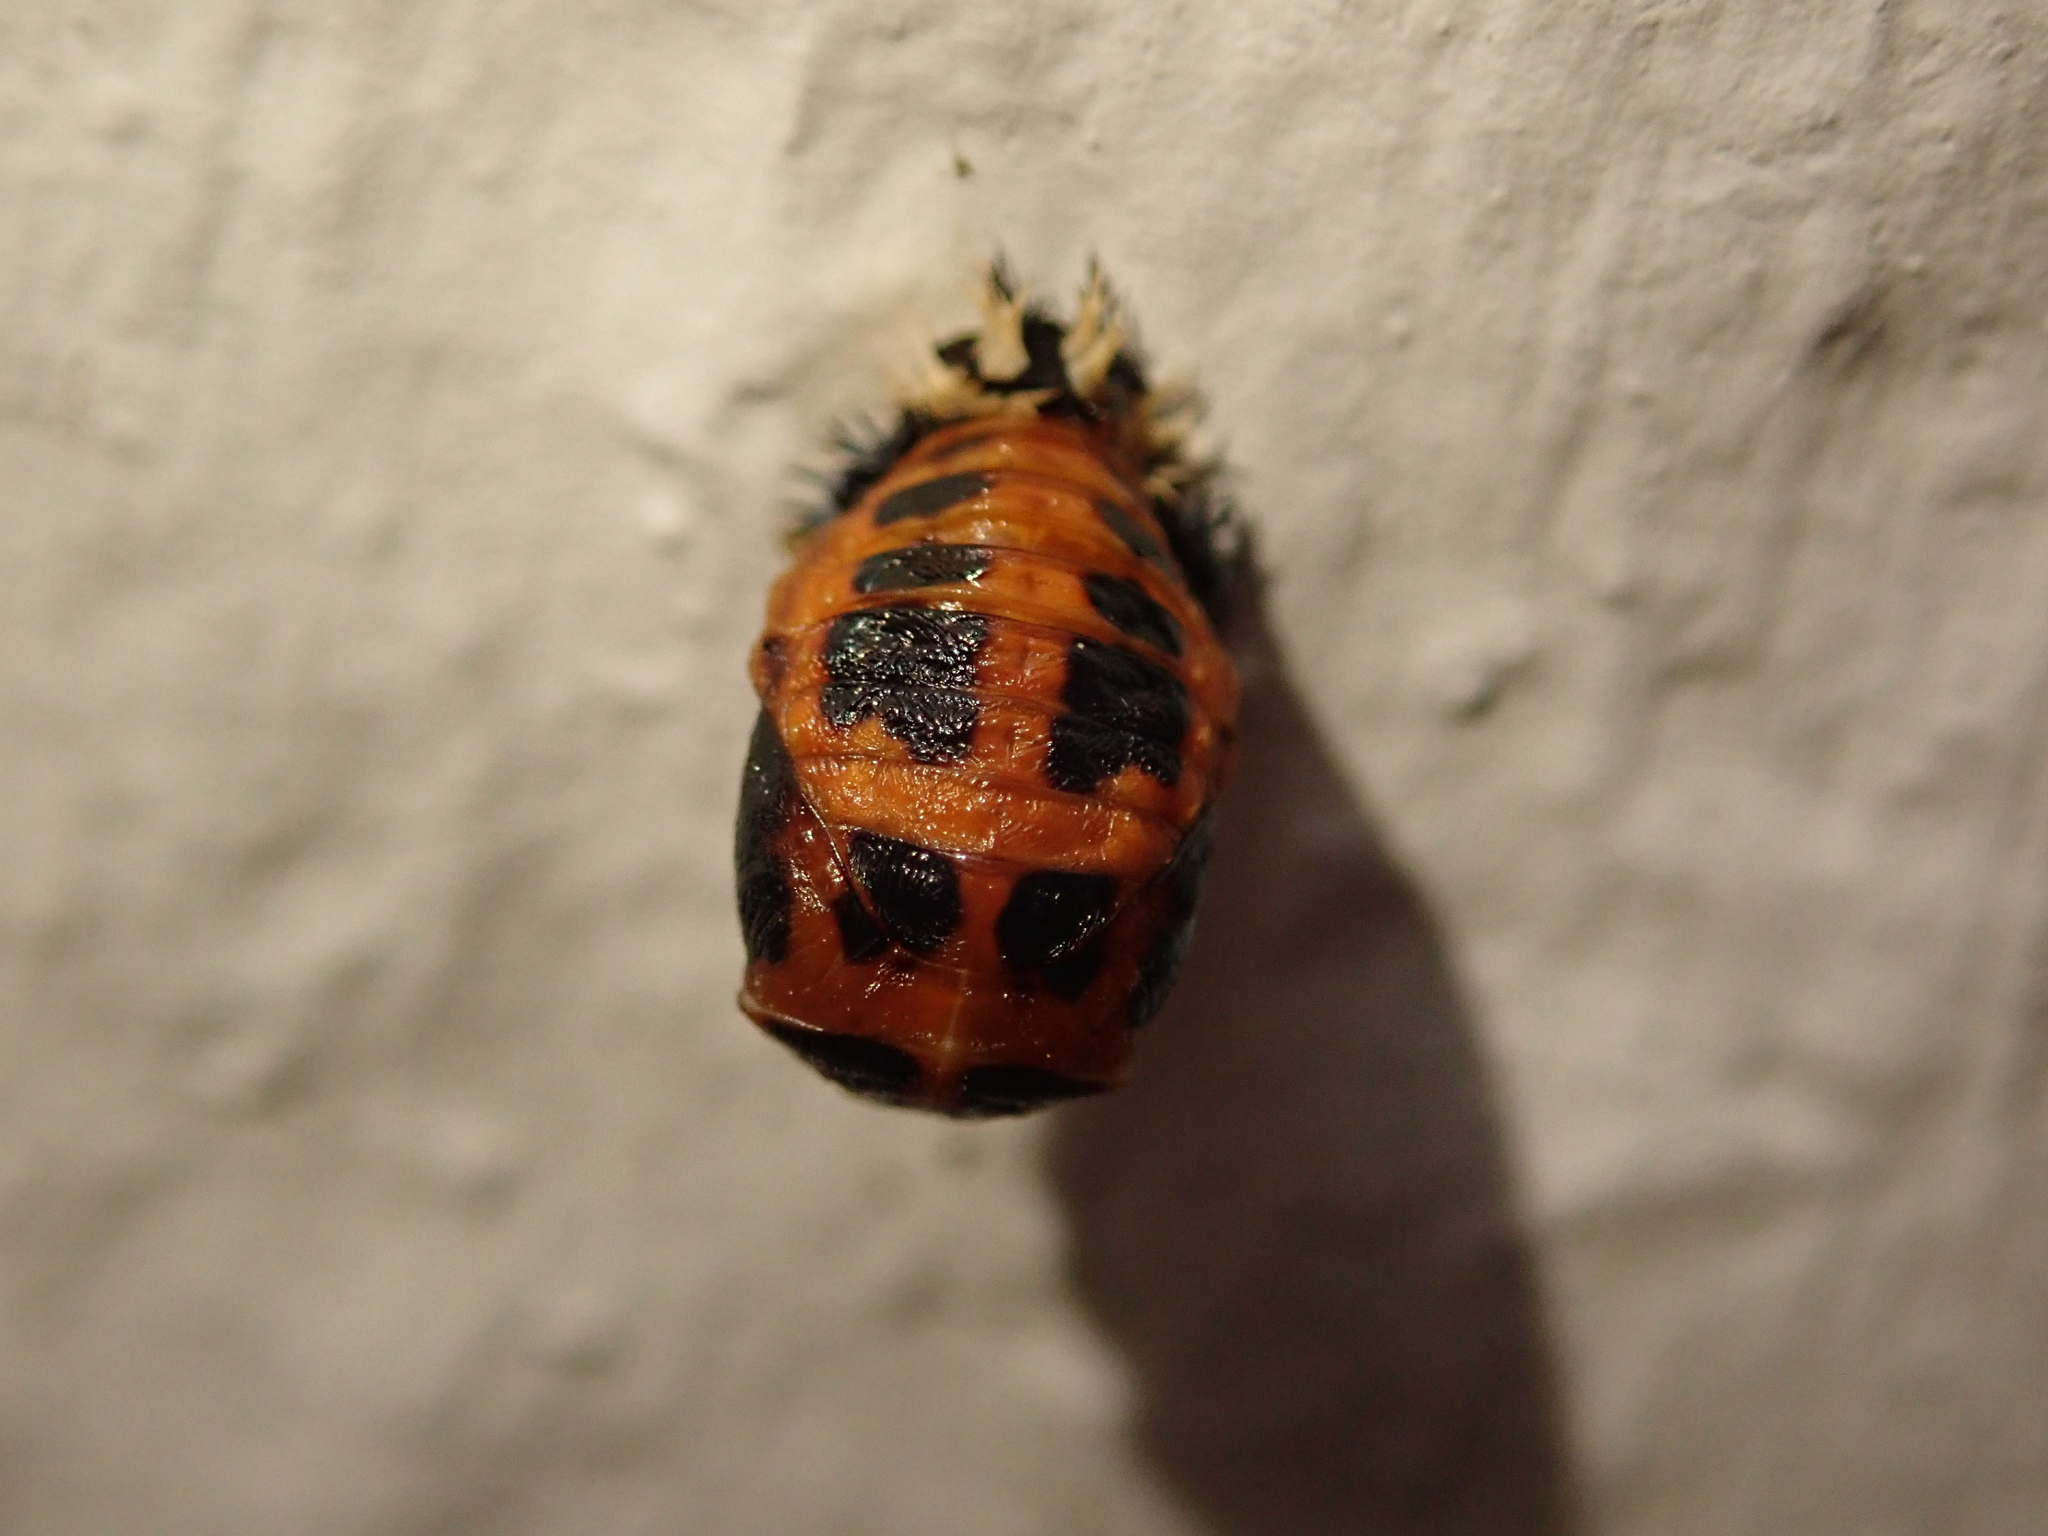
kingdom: Animalia
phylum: Arthropoda
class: Insecta
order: Coleoptera
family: Coccinellidae
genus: Harmonia
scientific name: Harmonia axyridis
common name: Harlequin ladybird
